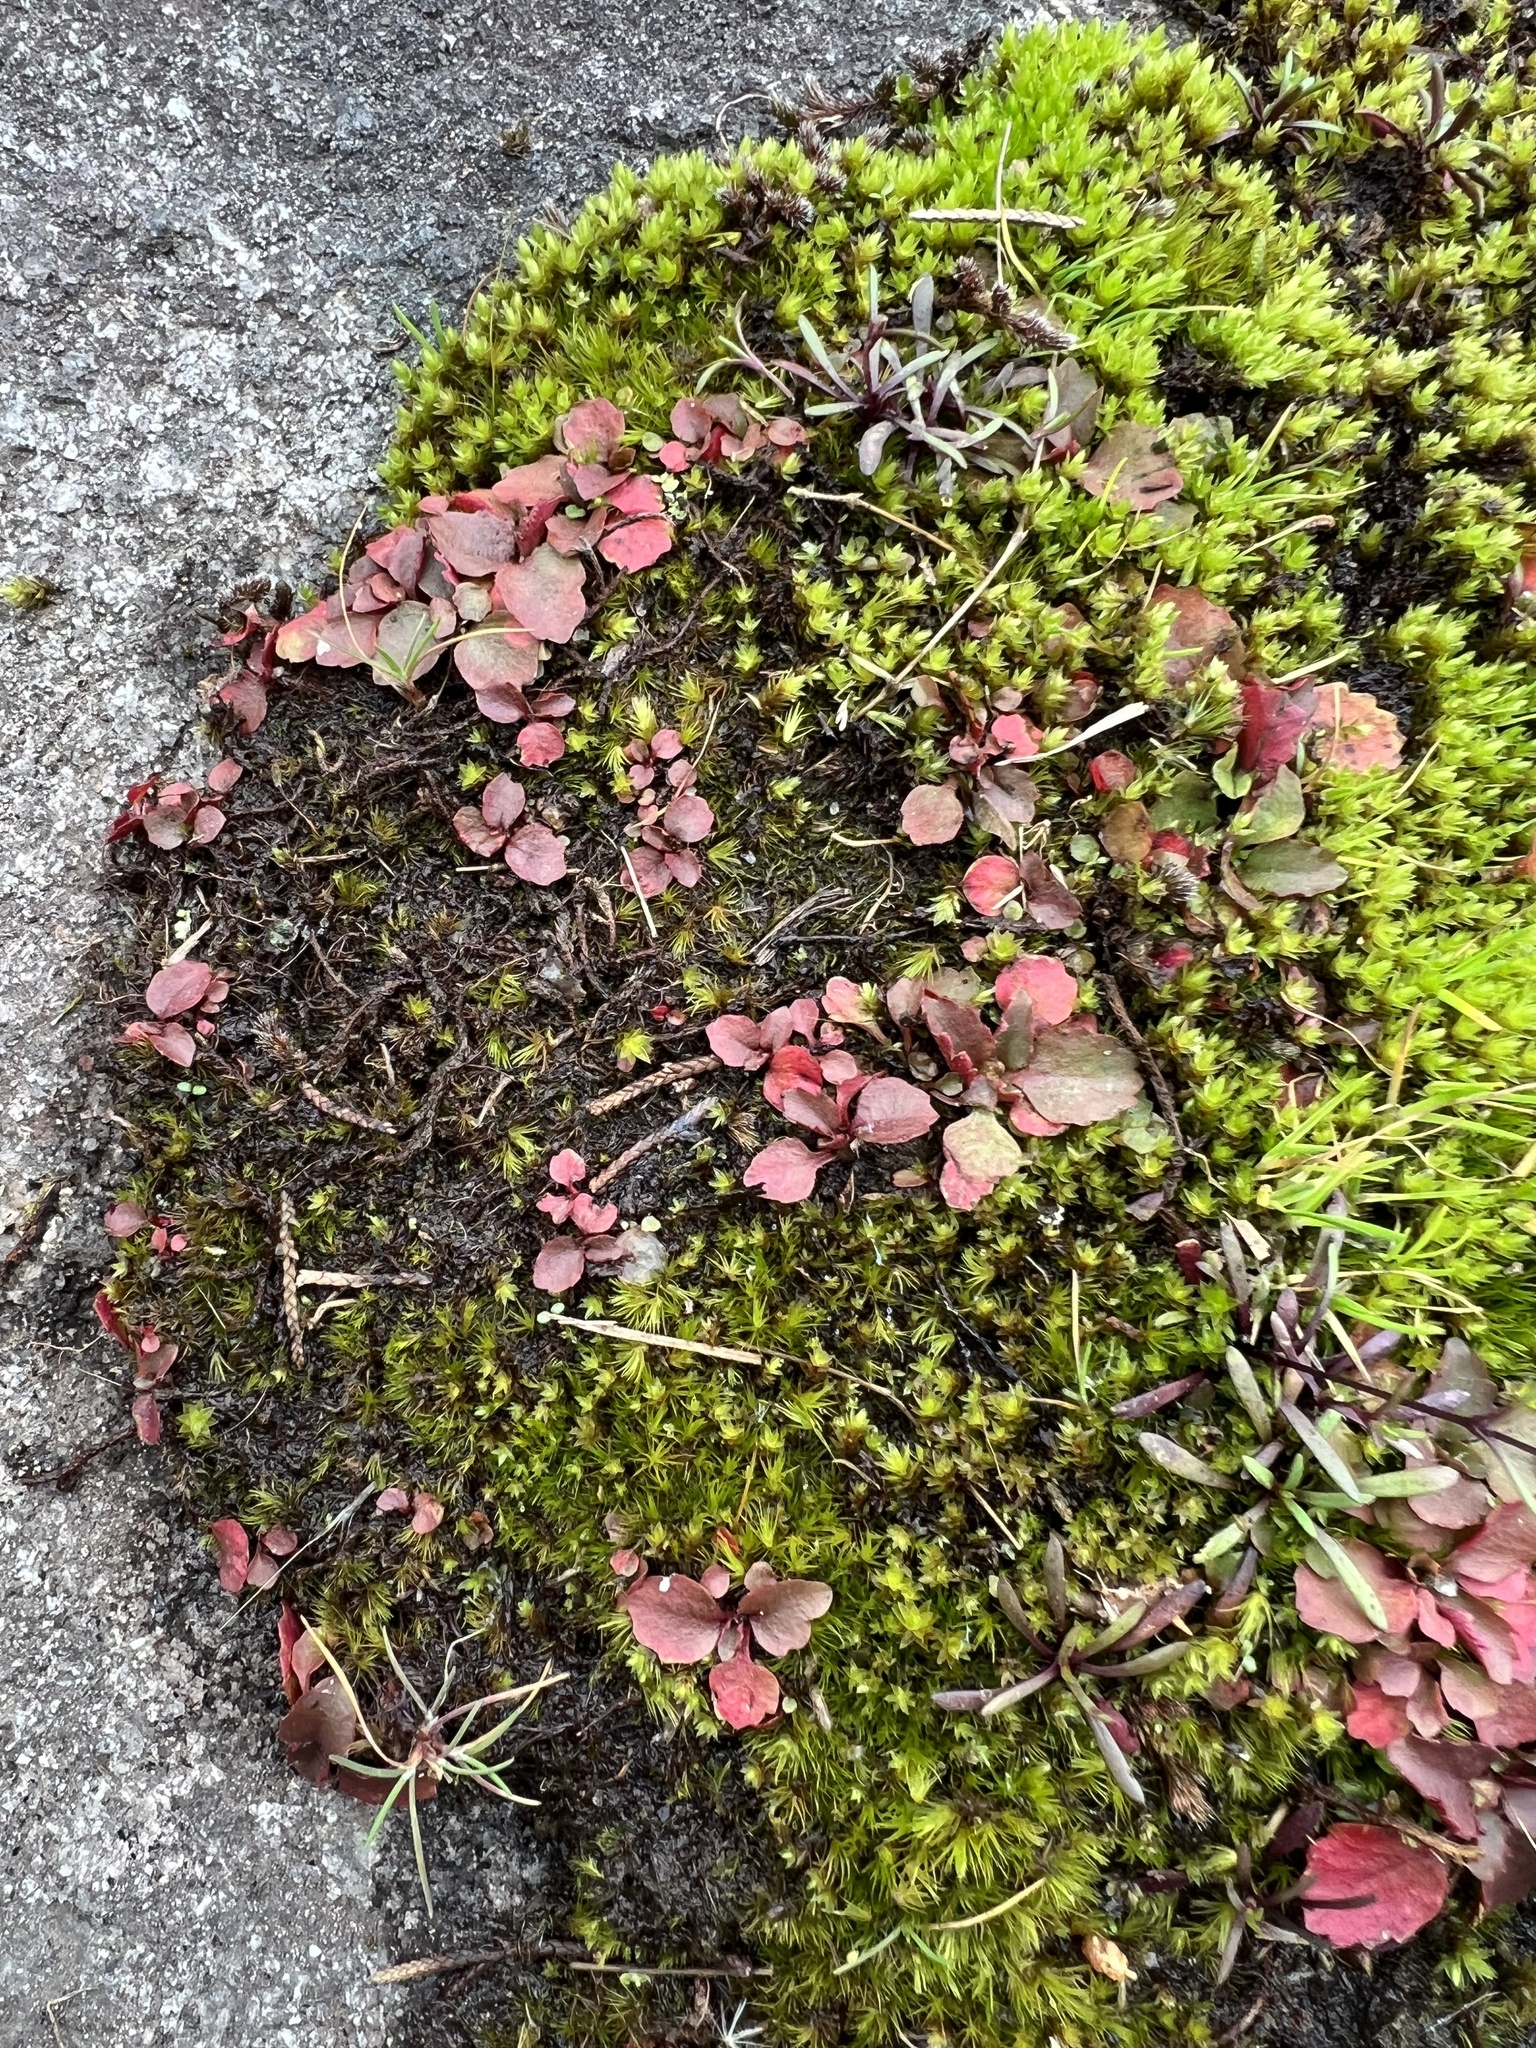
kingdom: Plantae
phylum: Tracheophyta
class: Magnoliopsida
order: Saxifragales
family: Saxifragaceae
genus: Micranthes
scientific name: Micranthes virginiensis
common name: Early saxifrage
